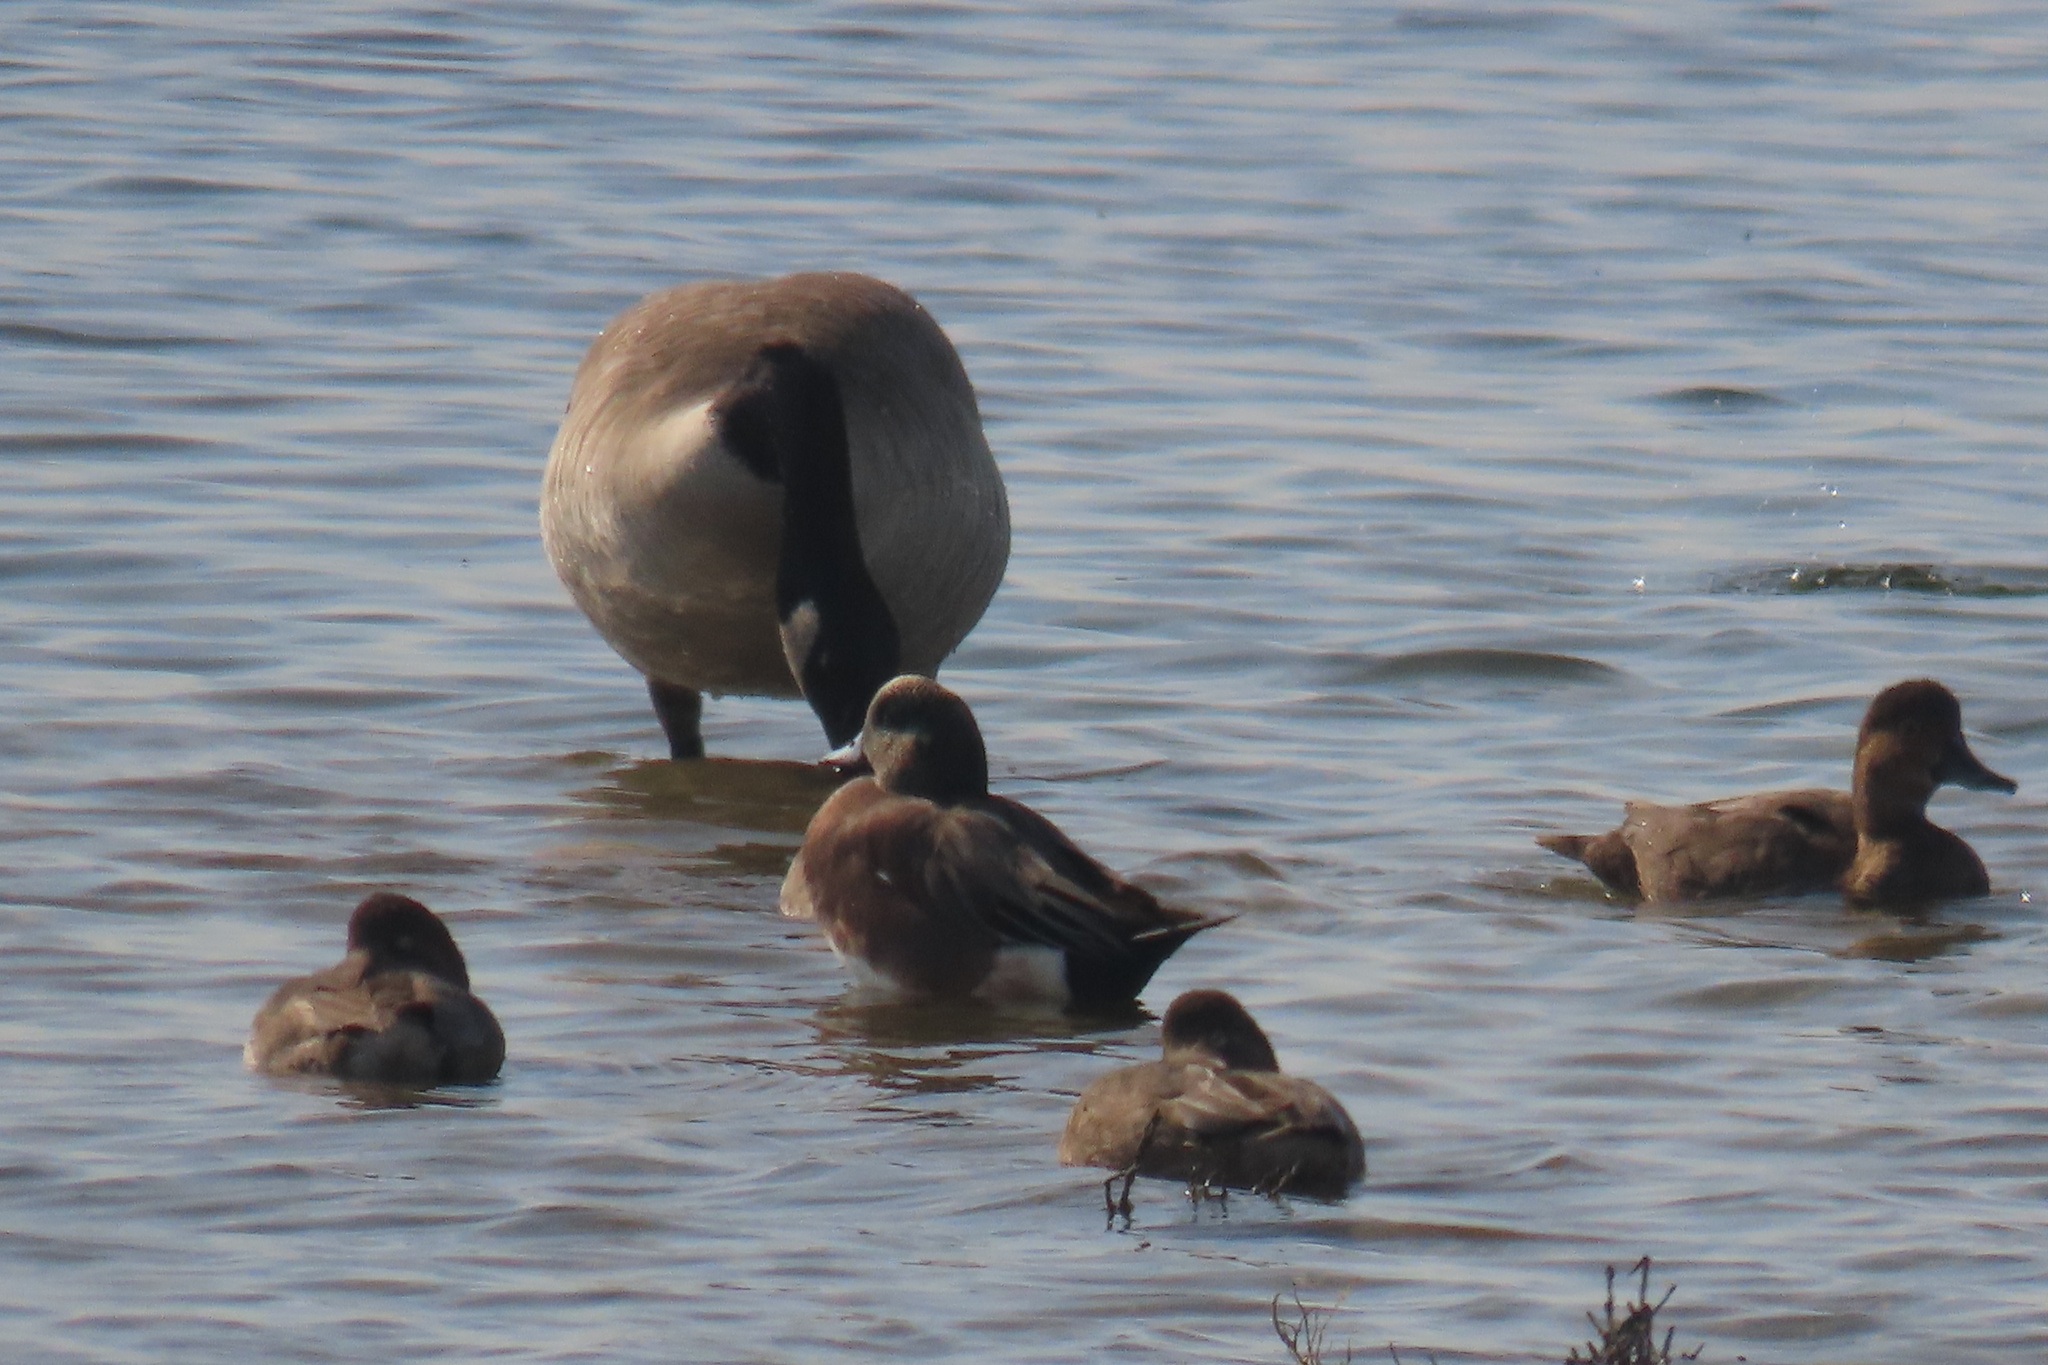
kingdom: Animalia
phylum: Chordata
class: Aves
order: Anseriformes
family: Anatidae
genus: Branta
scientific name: Branta canadensis
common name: Canada goose
